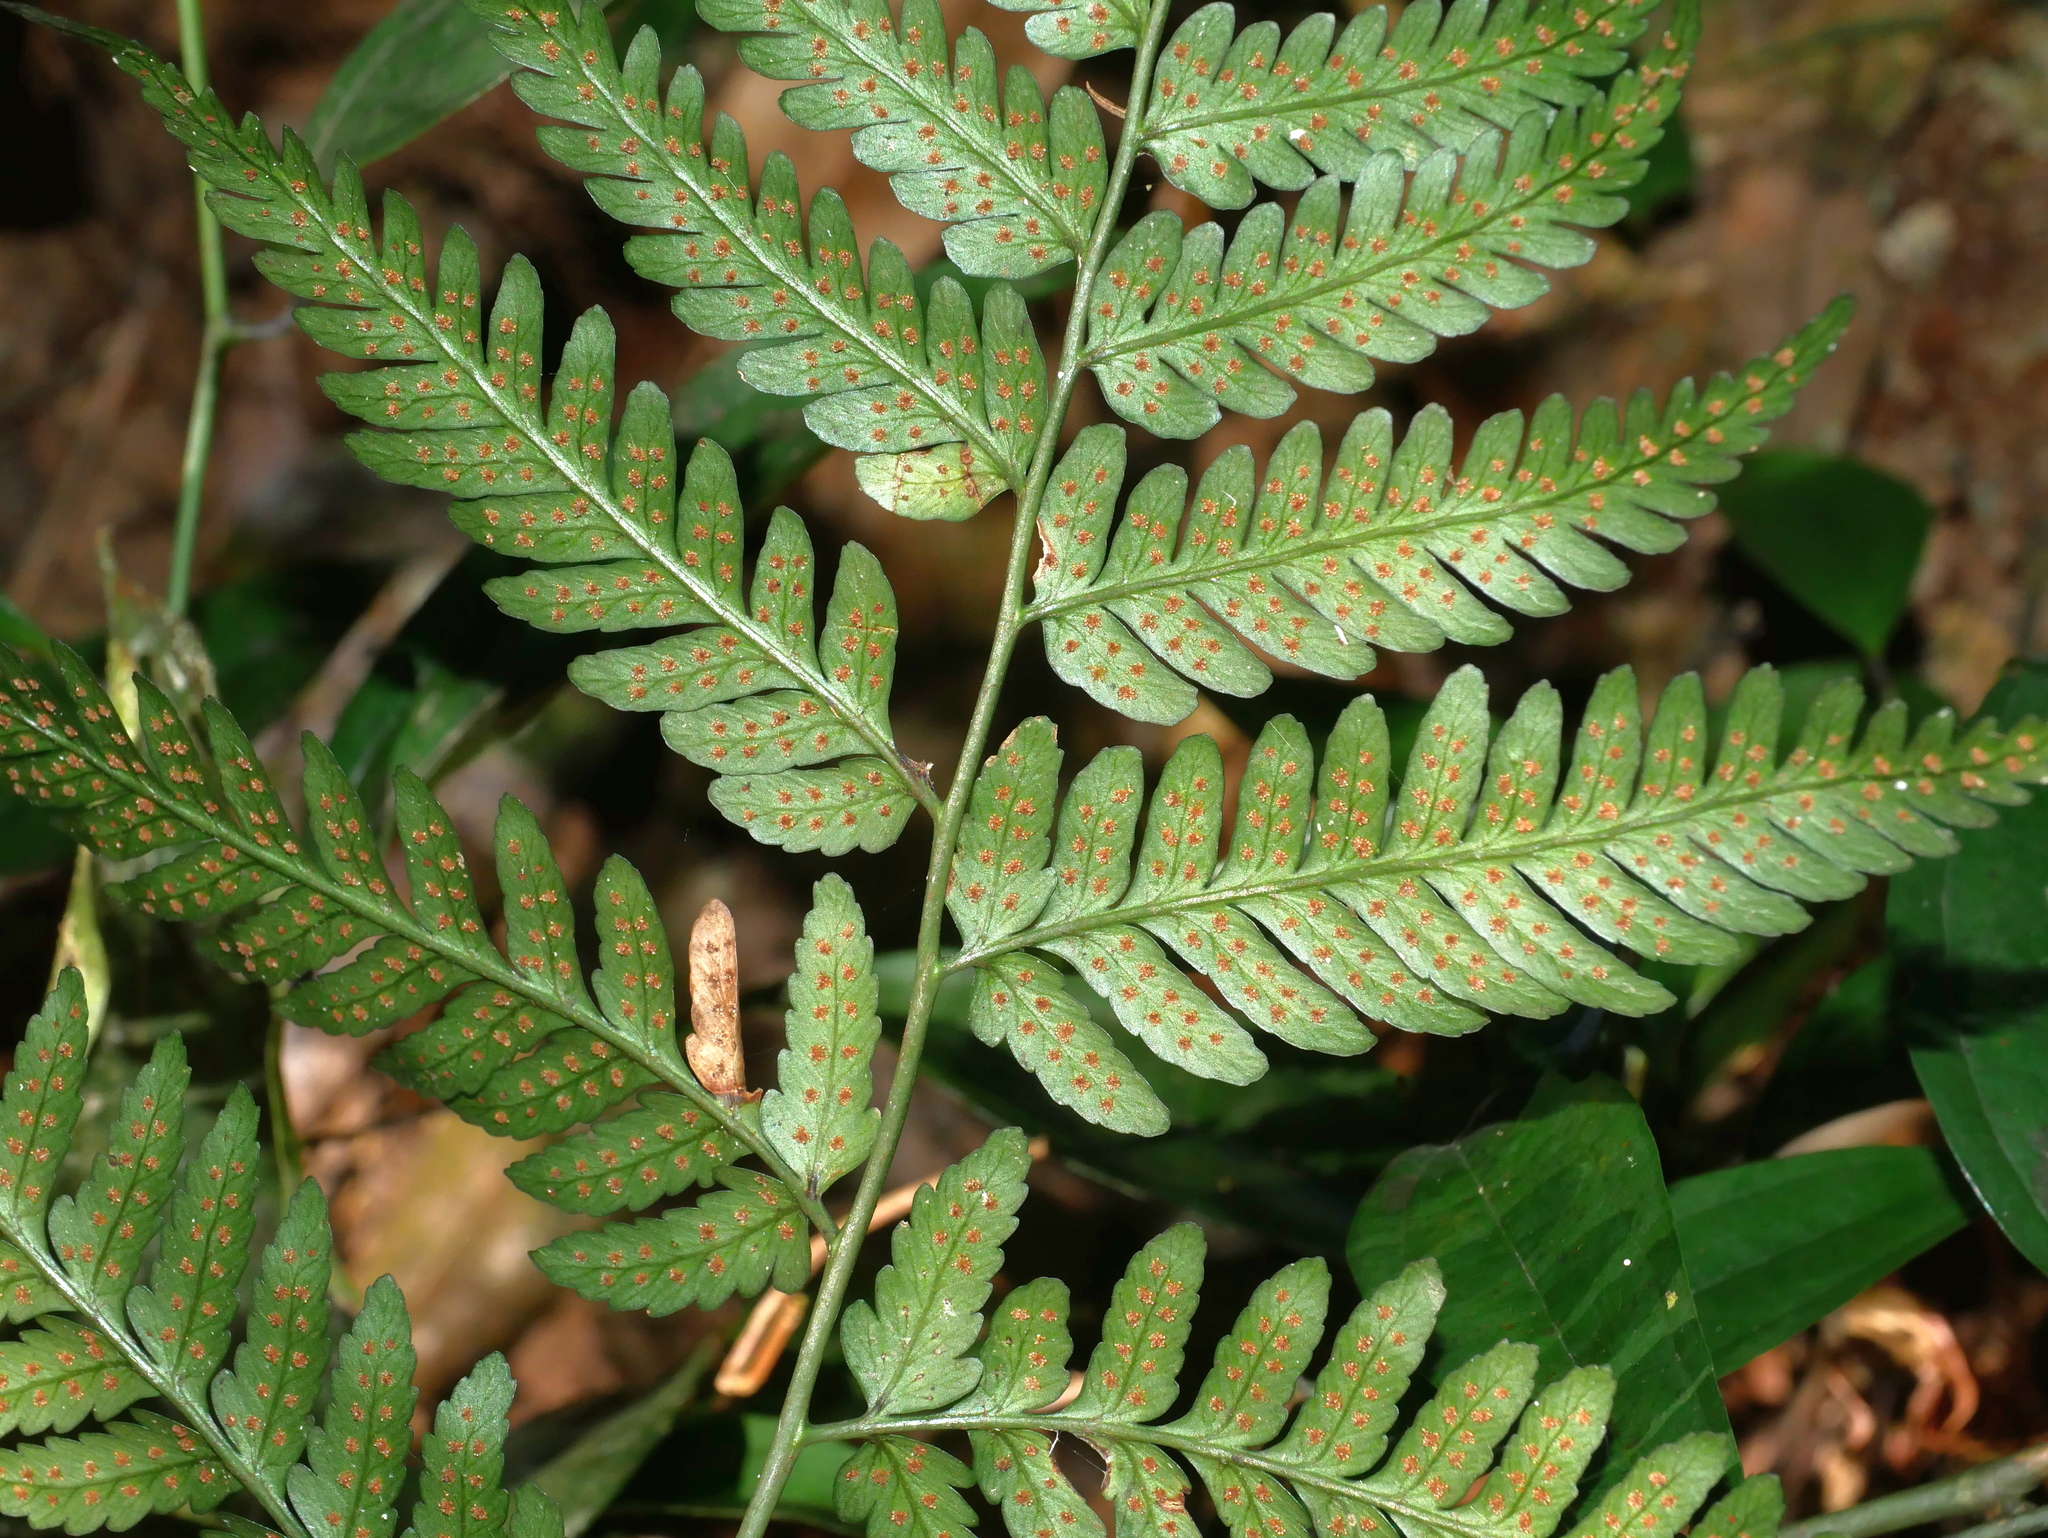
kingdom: Plantae
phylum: Tracheophyta
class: Polypodiopsida
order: Polypodiales
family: Dryopteridaceae
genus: Dryopteris
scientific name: Dryopteris polita
